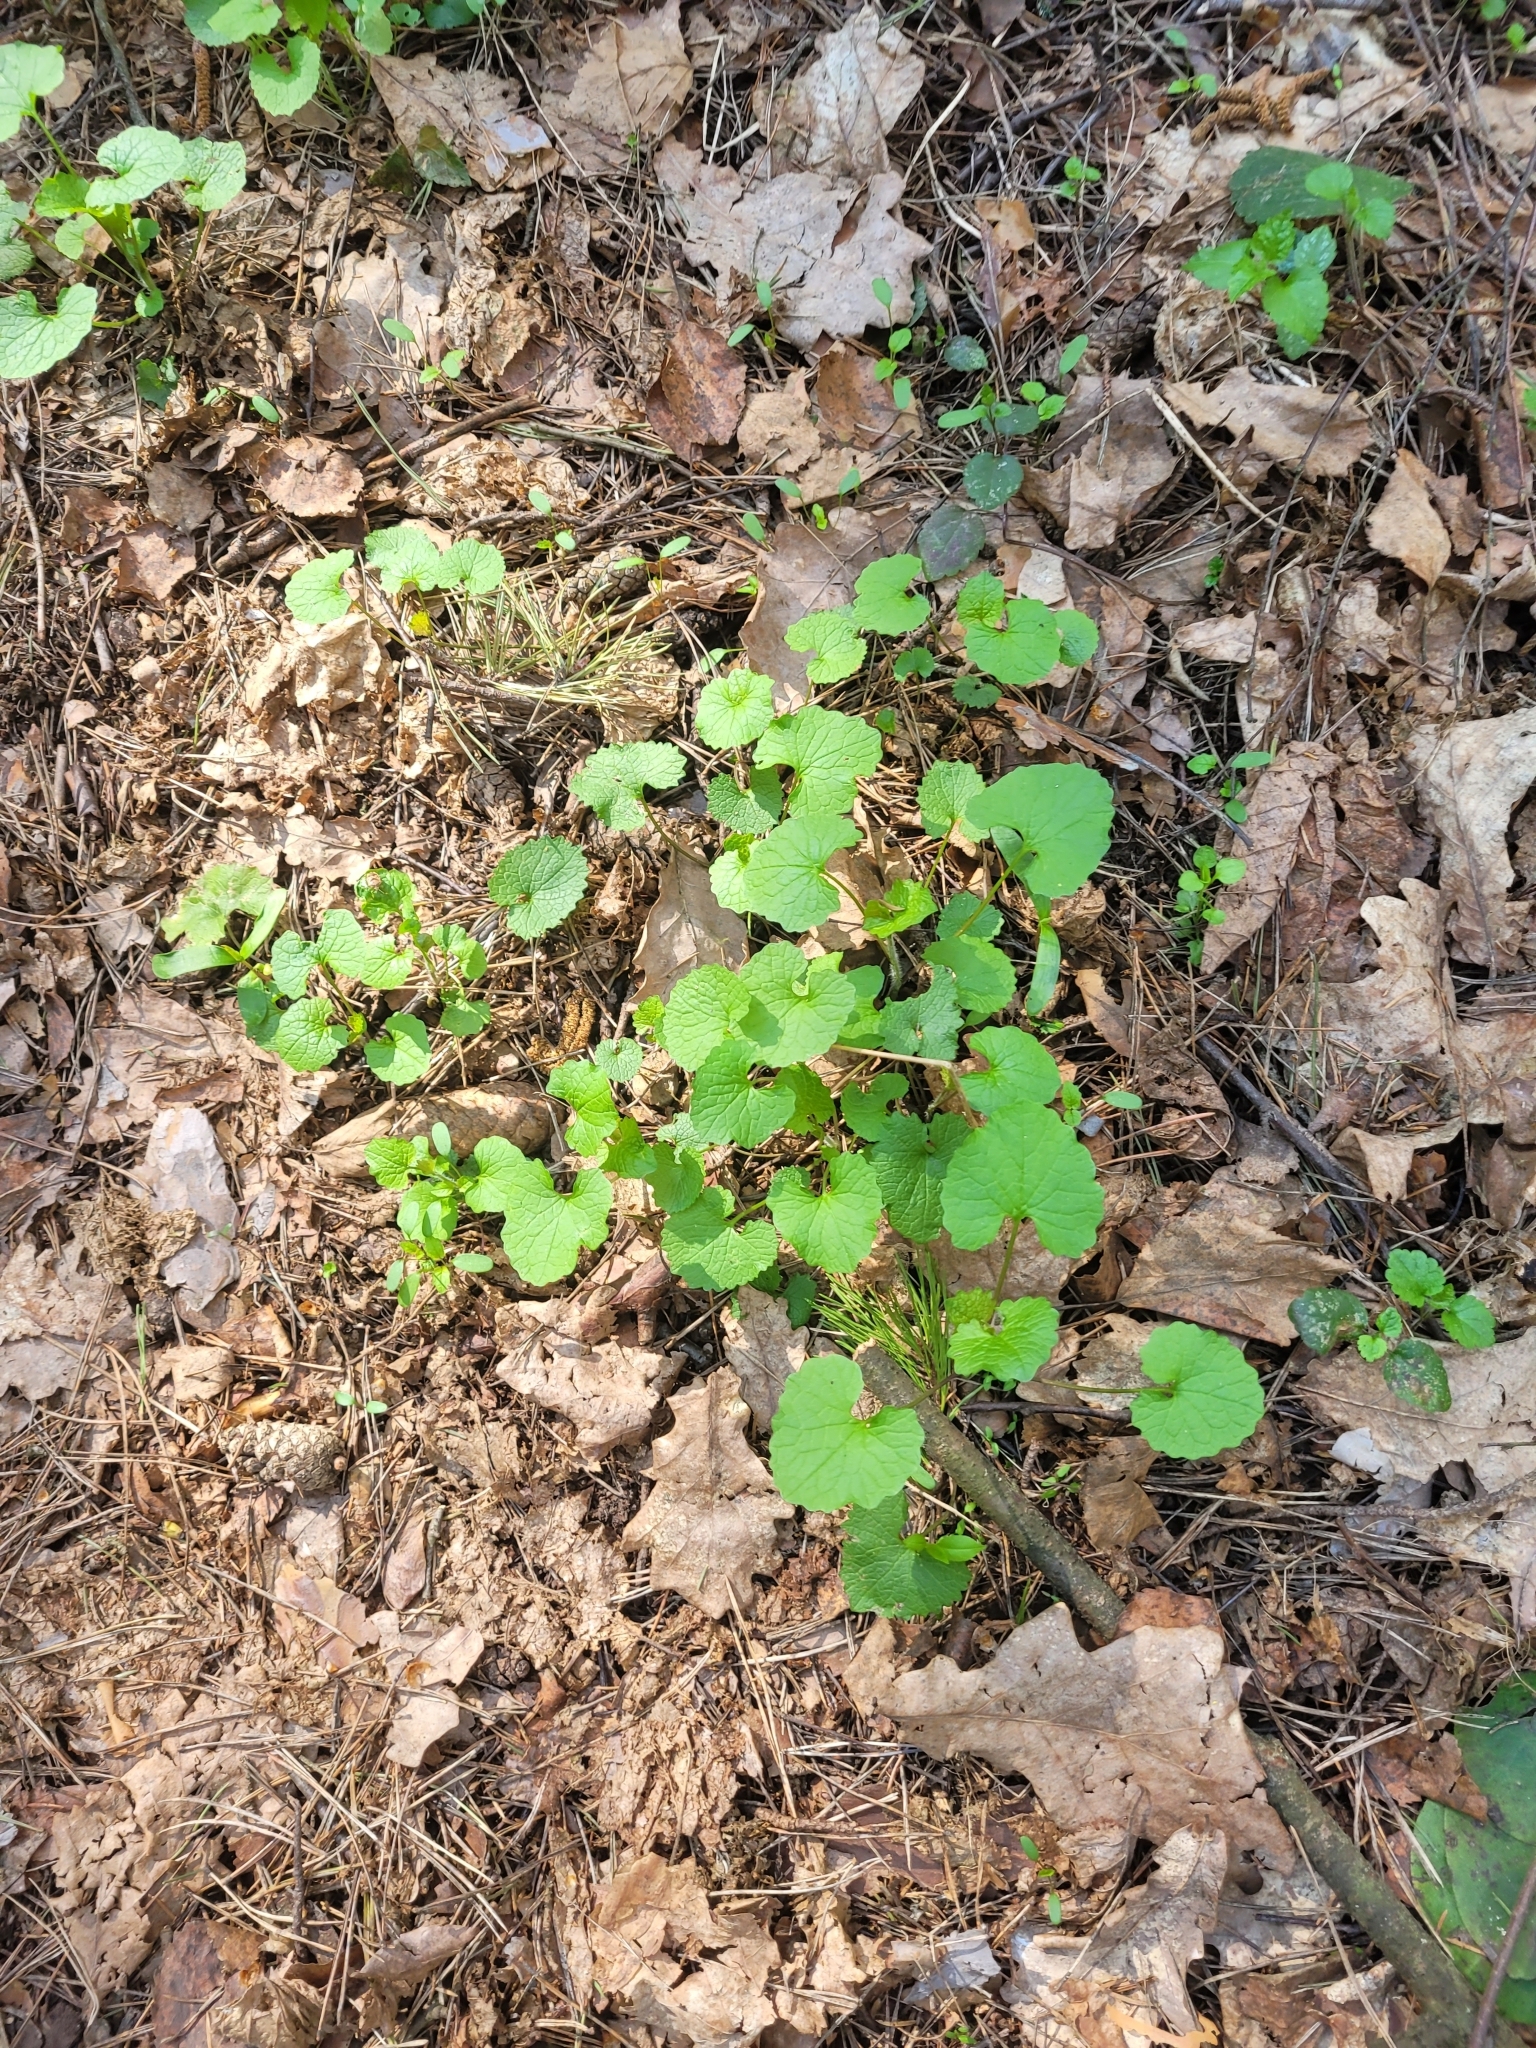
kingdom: Plantae
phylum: Tracheophyta
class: Magnoliopsida
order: Brassicales
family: Brassicaceae
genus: Alliaria
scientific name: Alliaria petiolata
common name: Garlic mustard
